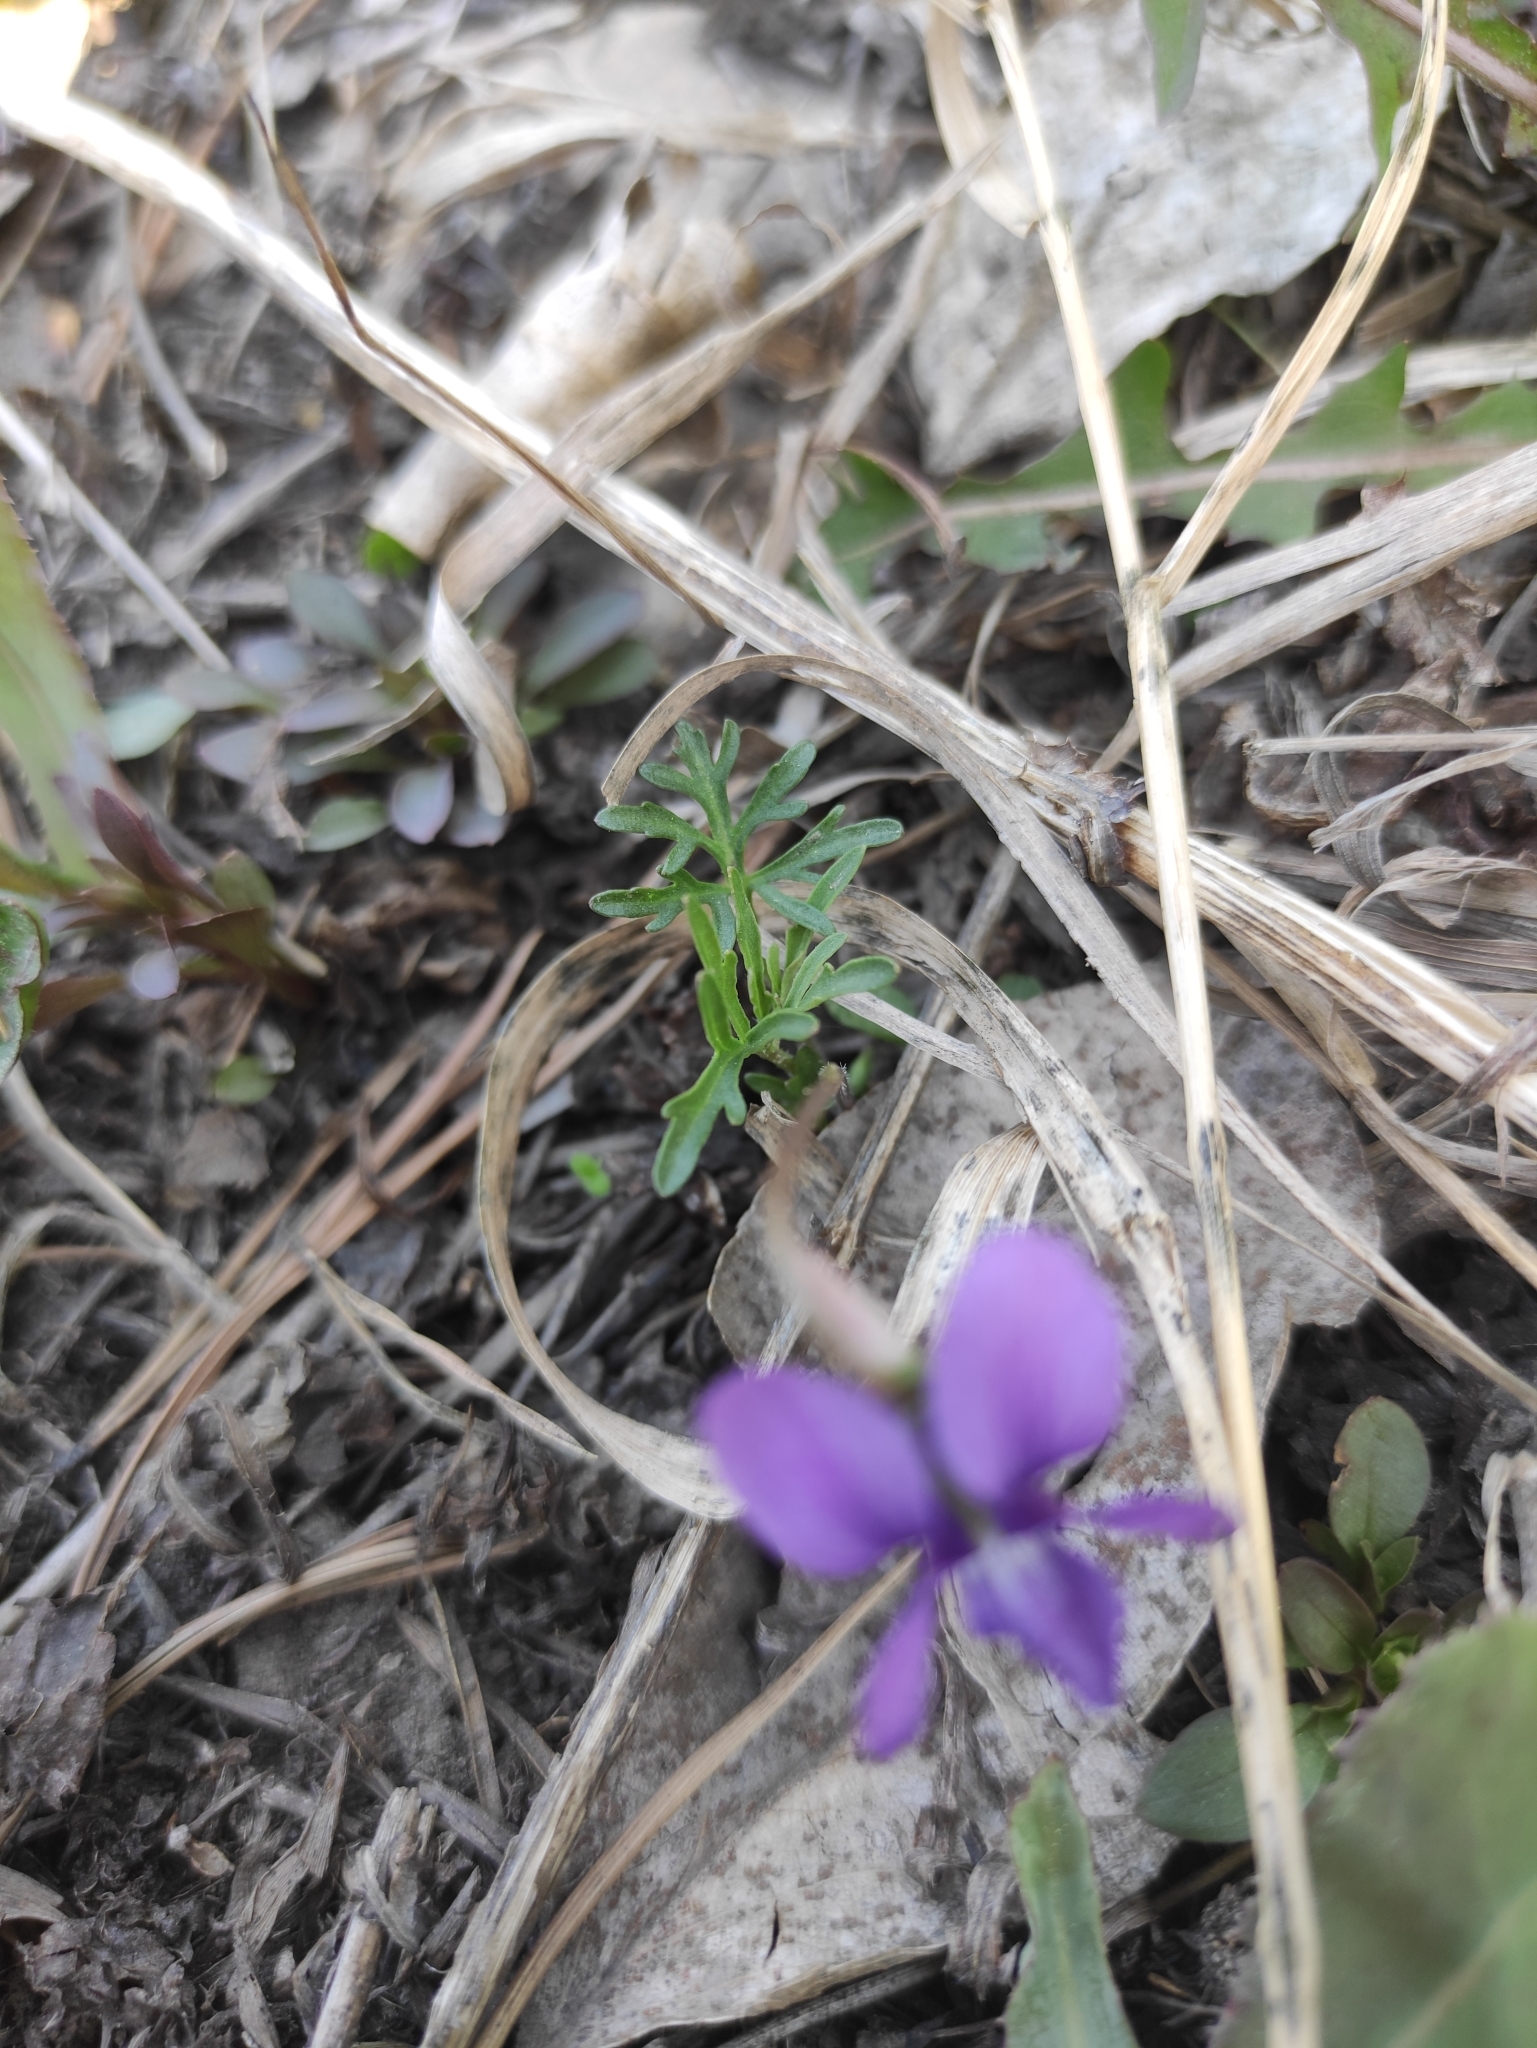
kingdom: Plantae
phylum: Tracheophyta
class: Magnoliopsida
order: Malpighiales
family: Violaceae
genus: Viola
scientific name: Viola multifida
